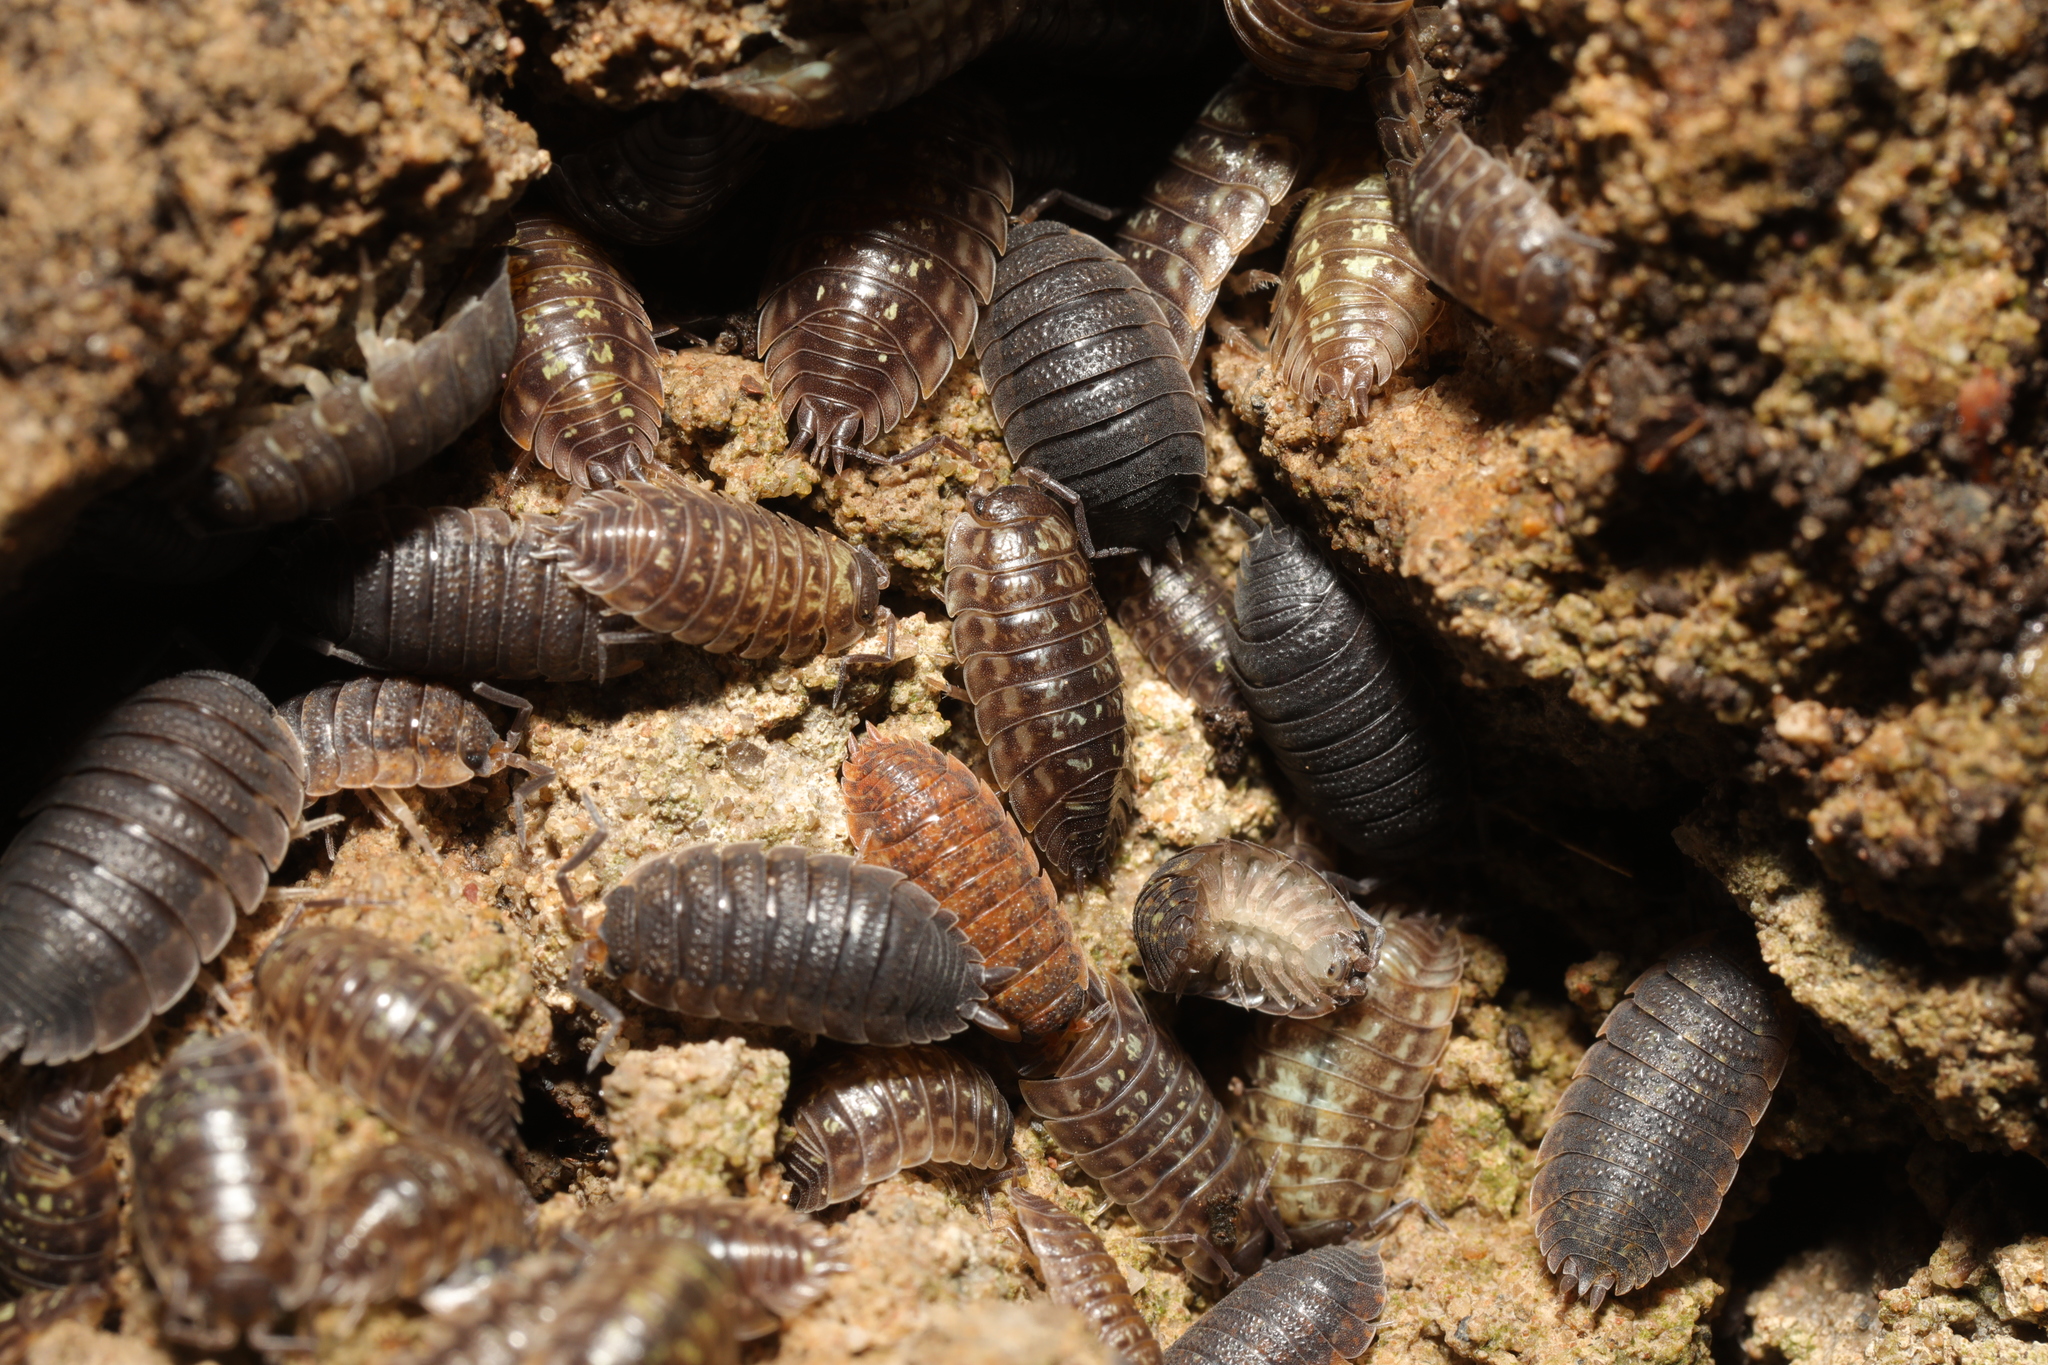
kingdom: Animalia
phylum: Arthropoda
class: Malacostraca
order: Isopoda
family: Porcellionidae
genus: Porcellio
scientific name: Porcellio scaber
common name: Common rough woodlouse
